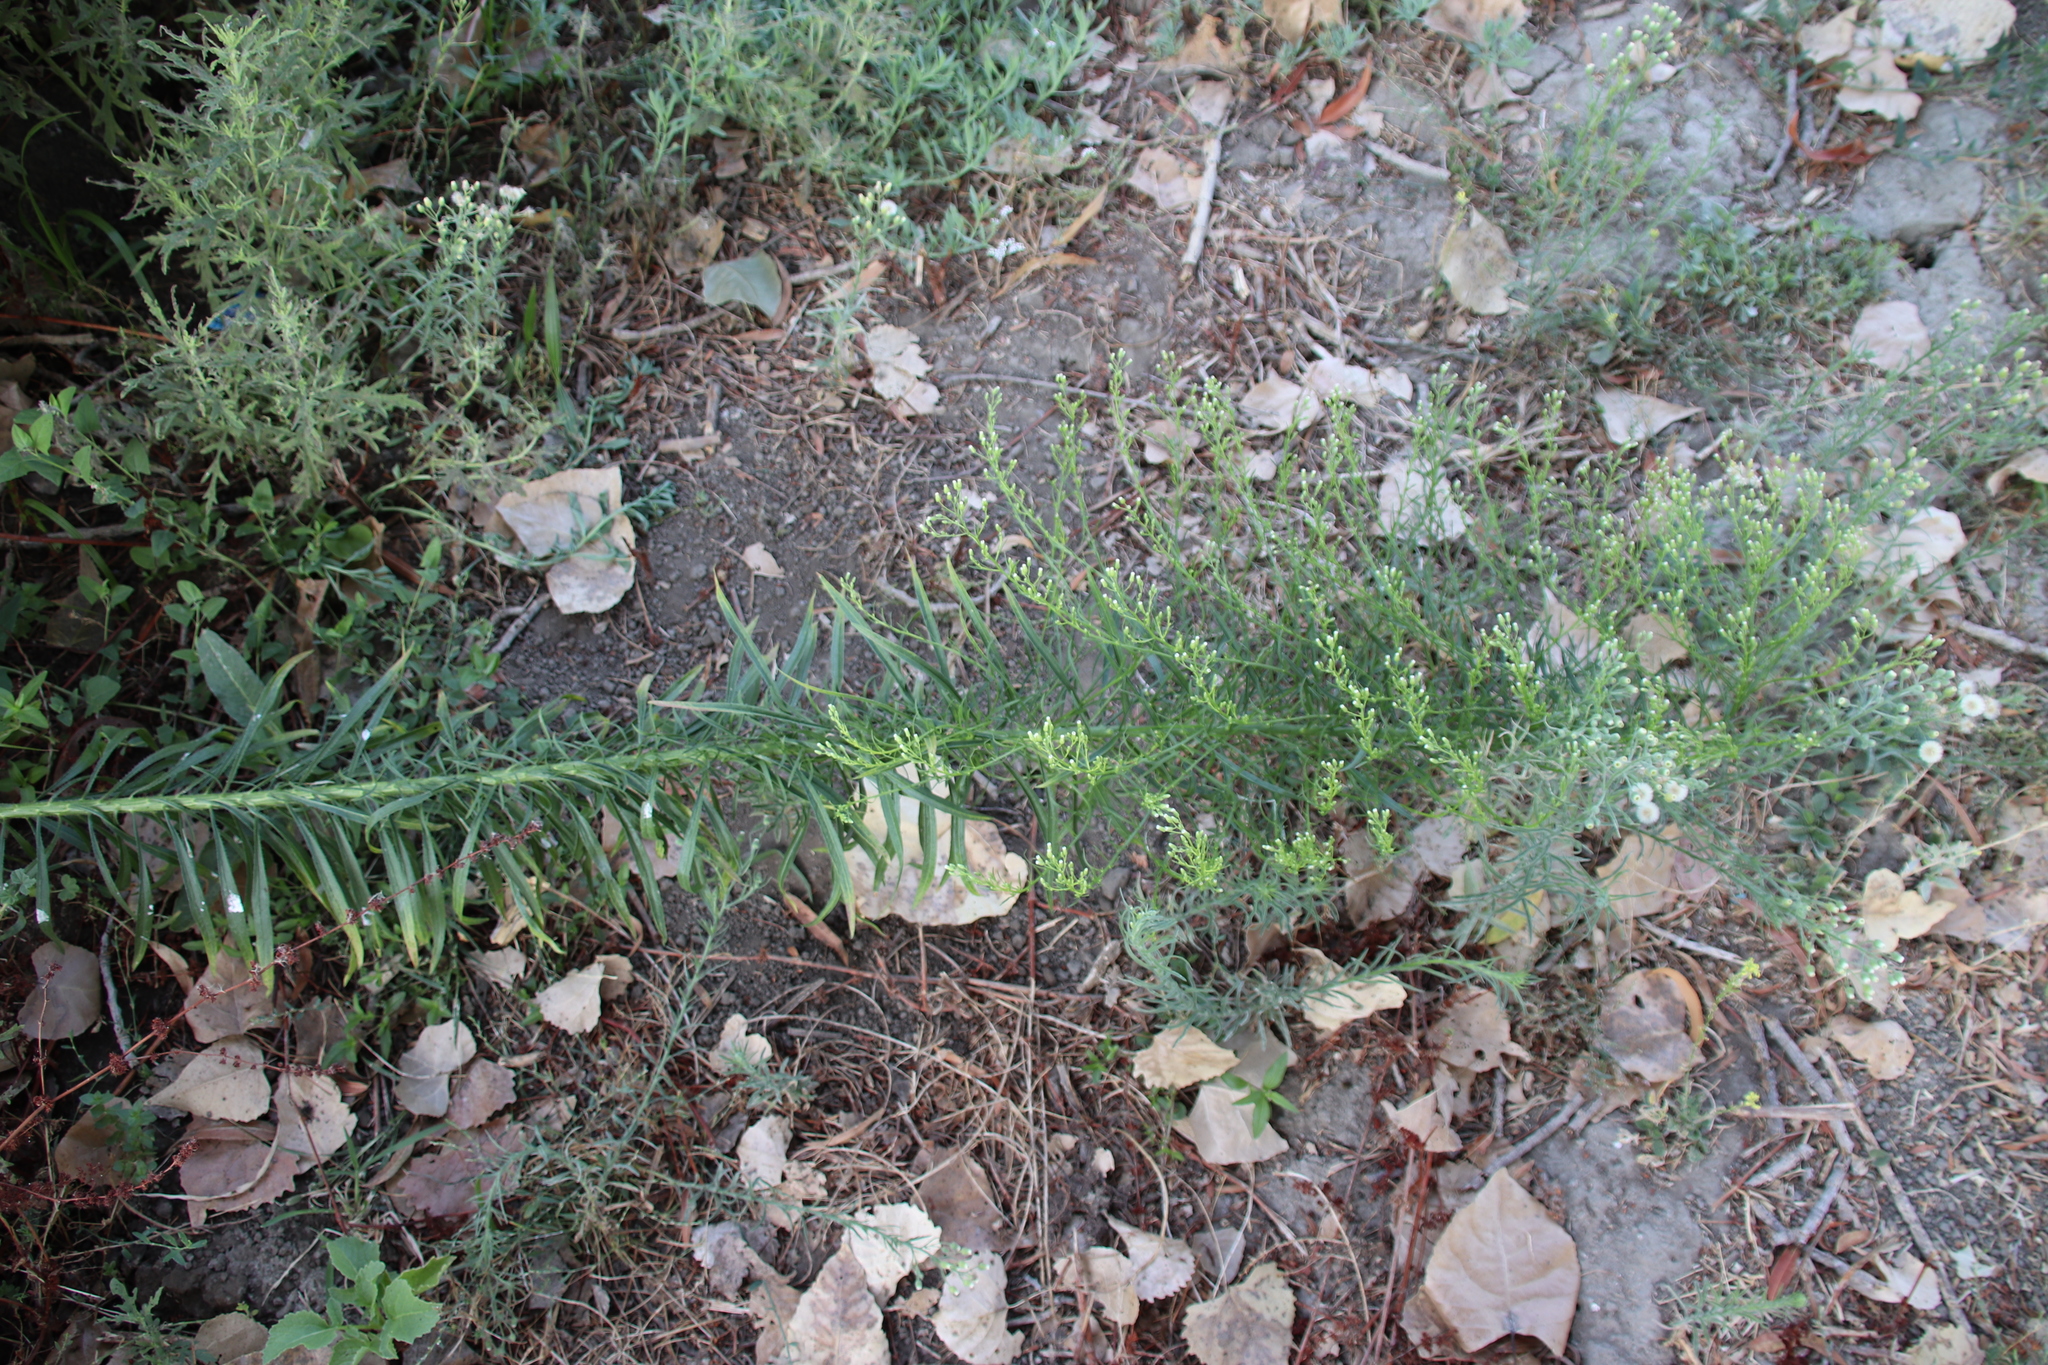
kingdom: Plantae
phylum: Tracheophyta
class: Magnoliopsida
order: Asterales
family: Asteraceae
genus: Erigeron
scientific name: Erigeron canadensis
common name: Canadian fleabane
